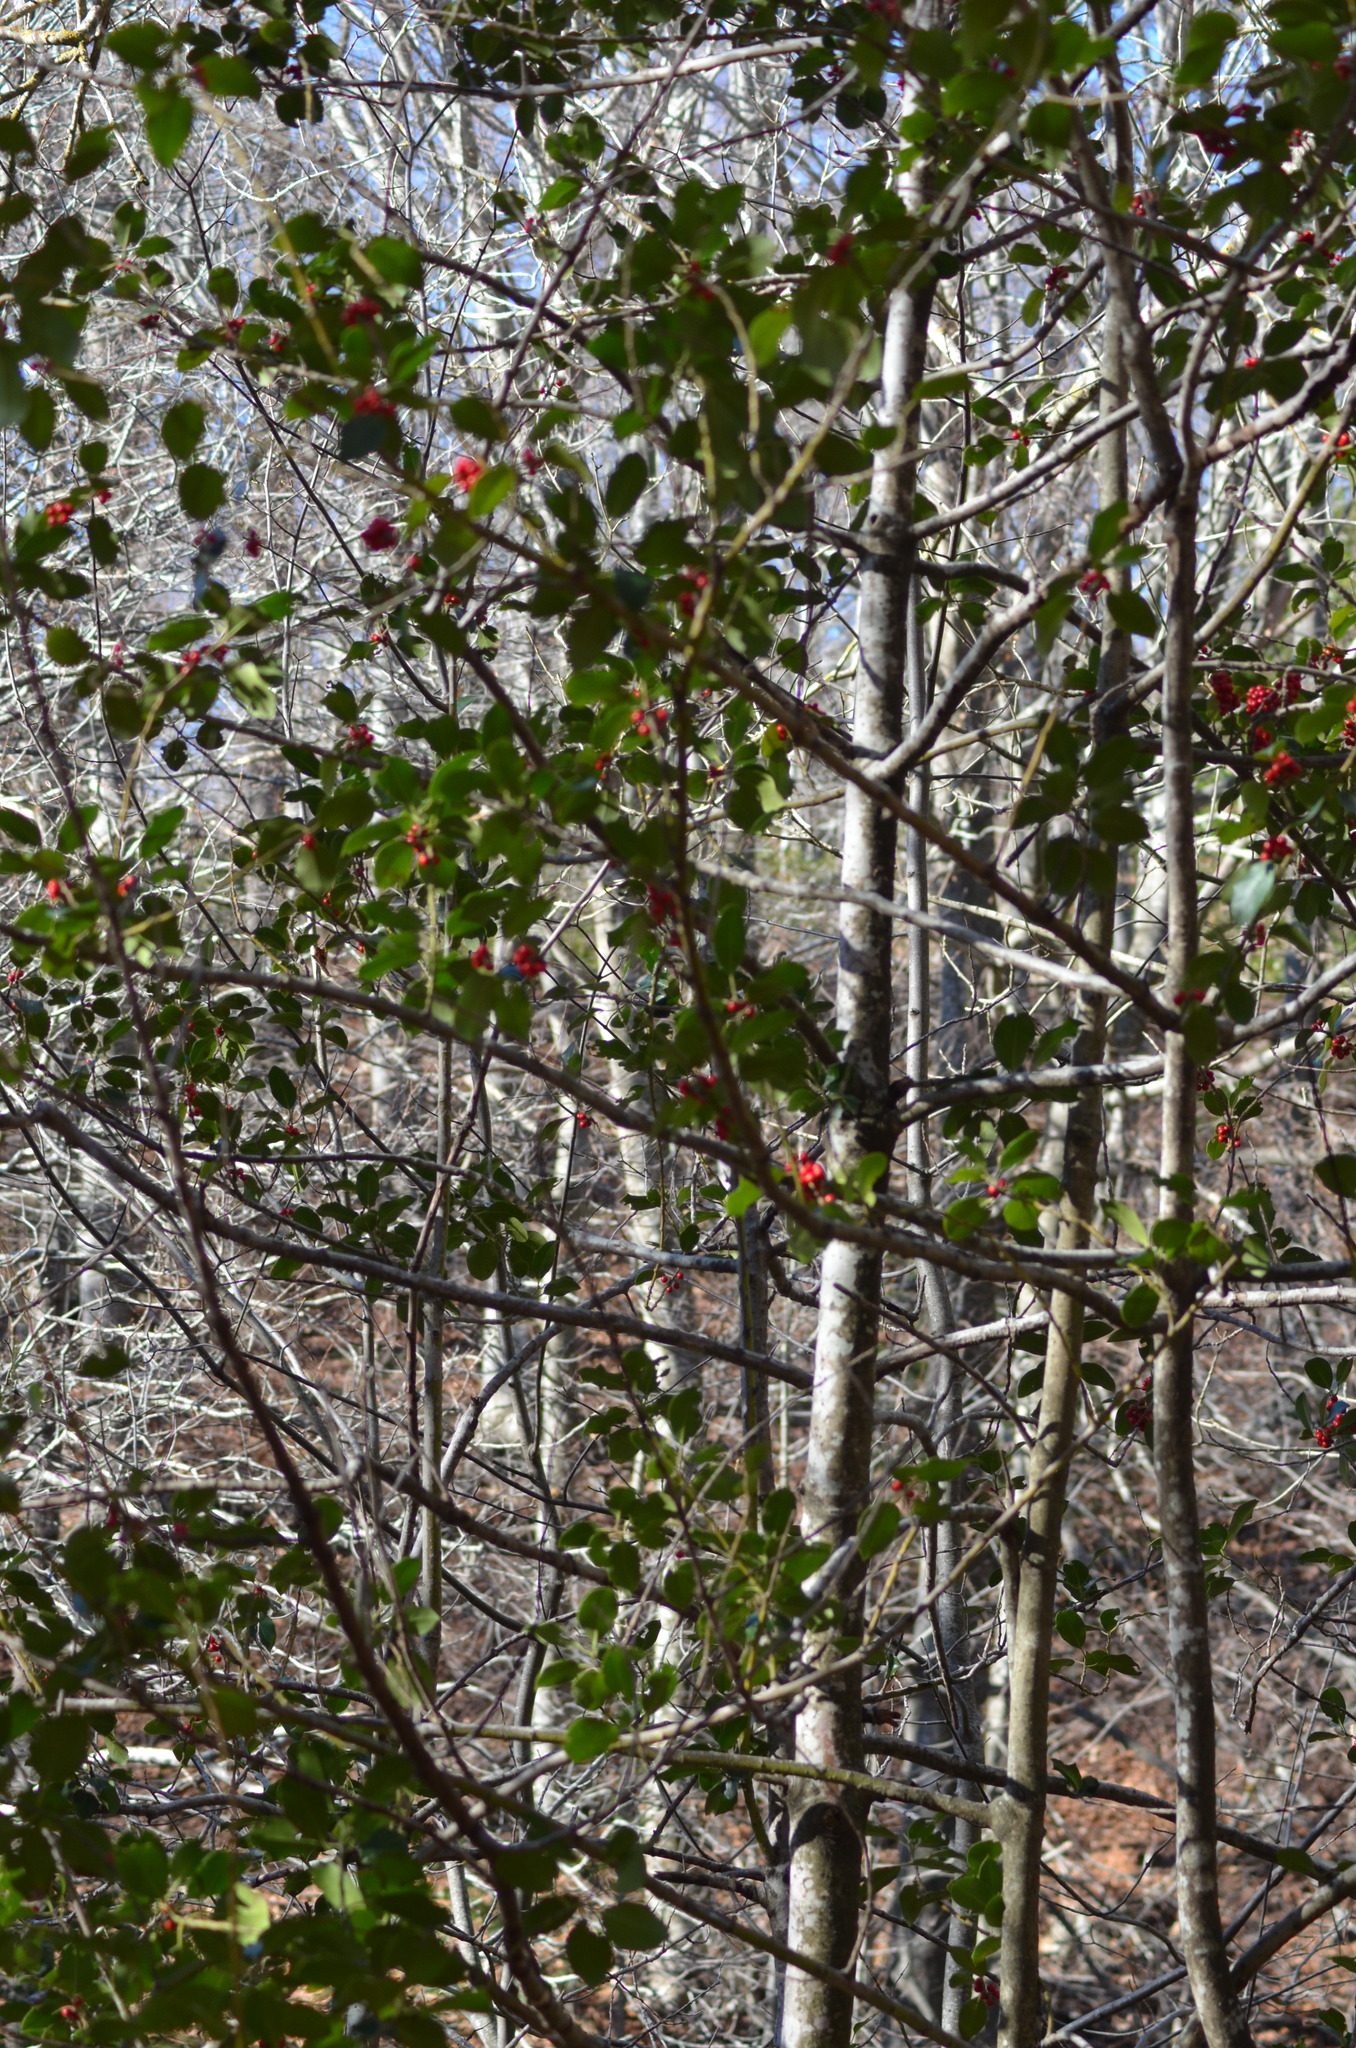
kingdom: Plantae
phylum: Tracheophyta
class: Magnoliopsida
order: Aquifoliales
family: Aquifoliaceae
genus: Ilex
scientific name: Ilex aquifolium
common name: English holly
